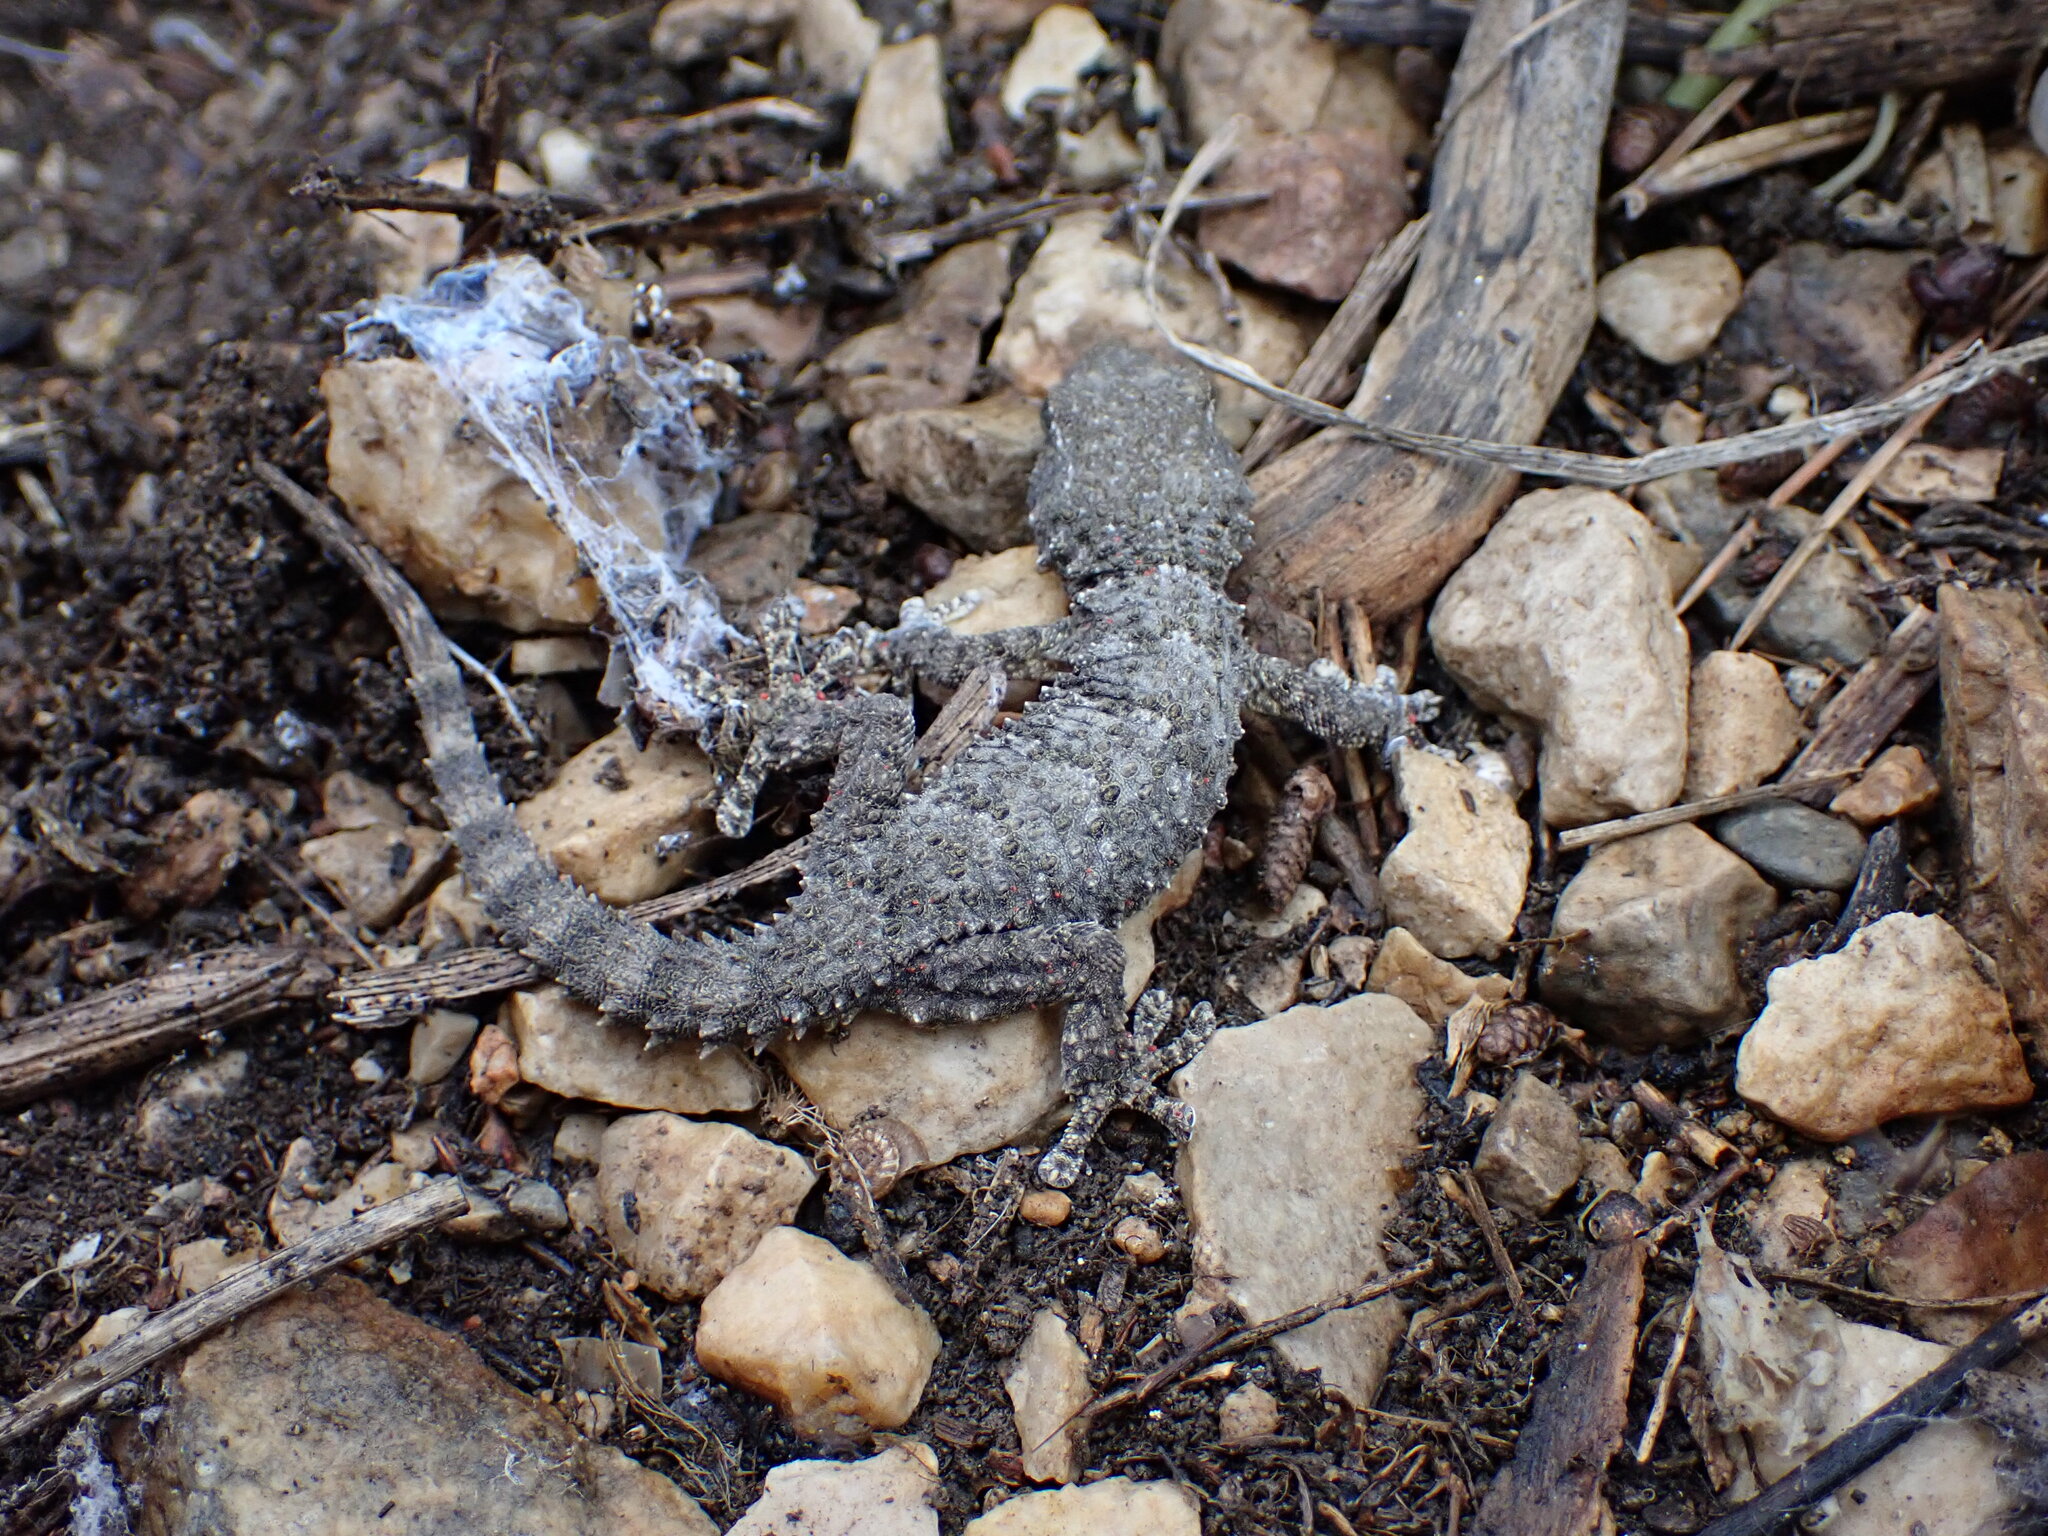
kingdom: Animalia
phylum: Chordata
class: Squamata
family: Phyllodactylidae
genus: Tarentola
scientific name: Tarentola mauritanica
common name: Moorish gecko
